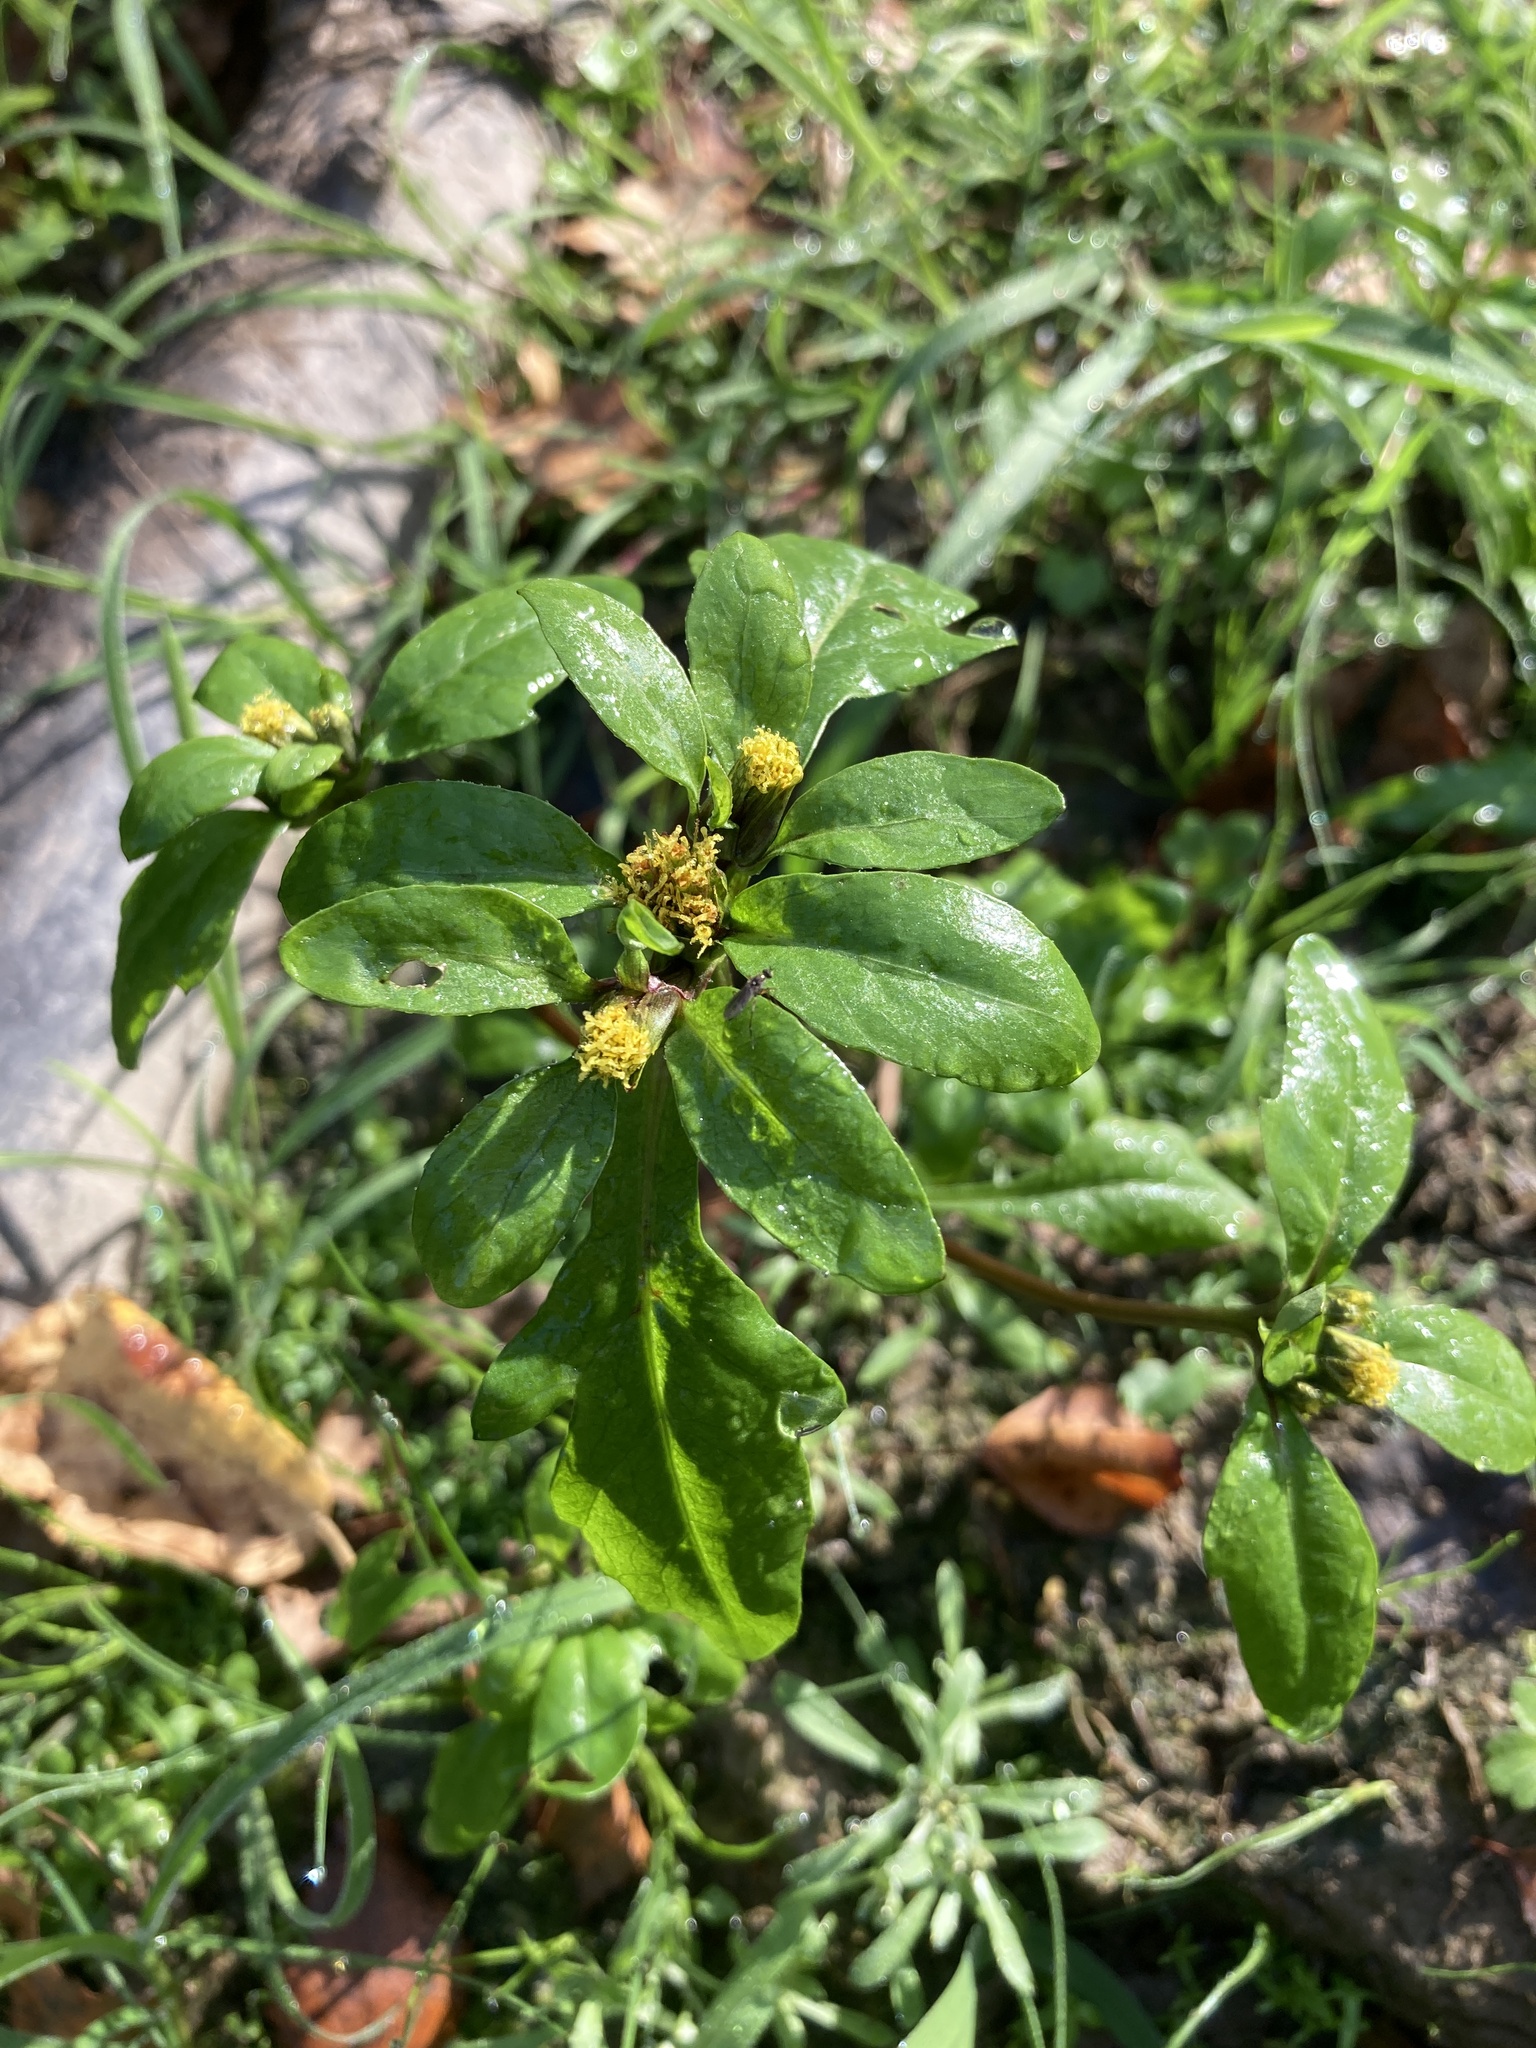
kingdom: Plantae
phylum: Tracheophyta
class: Magnoliopsida
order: Asterales
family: Asteraceae
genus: Bidens
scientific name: Bidens tripartita
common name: Trifid bur-marigold
